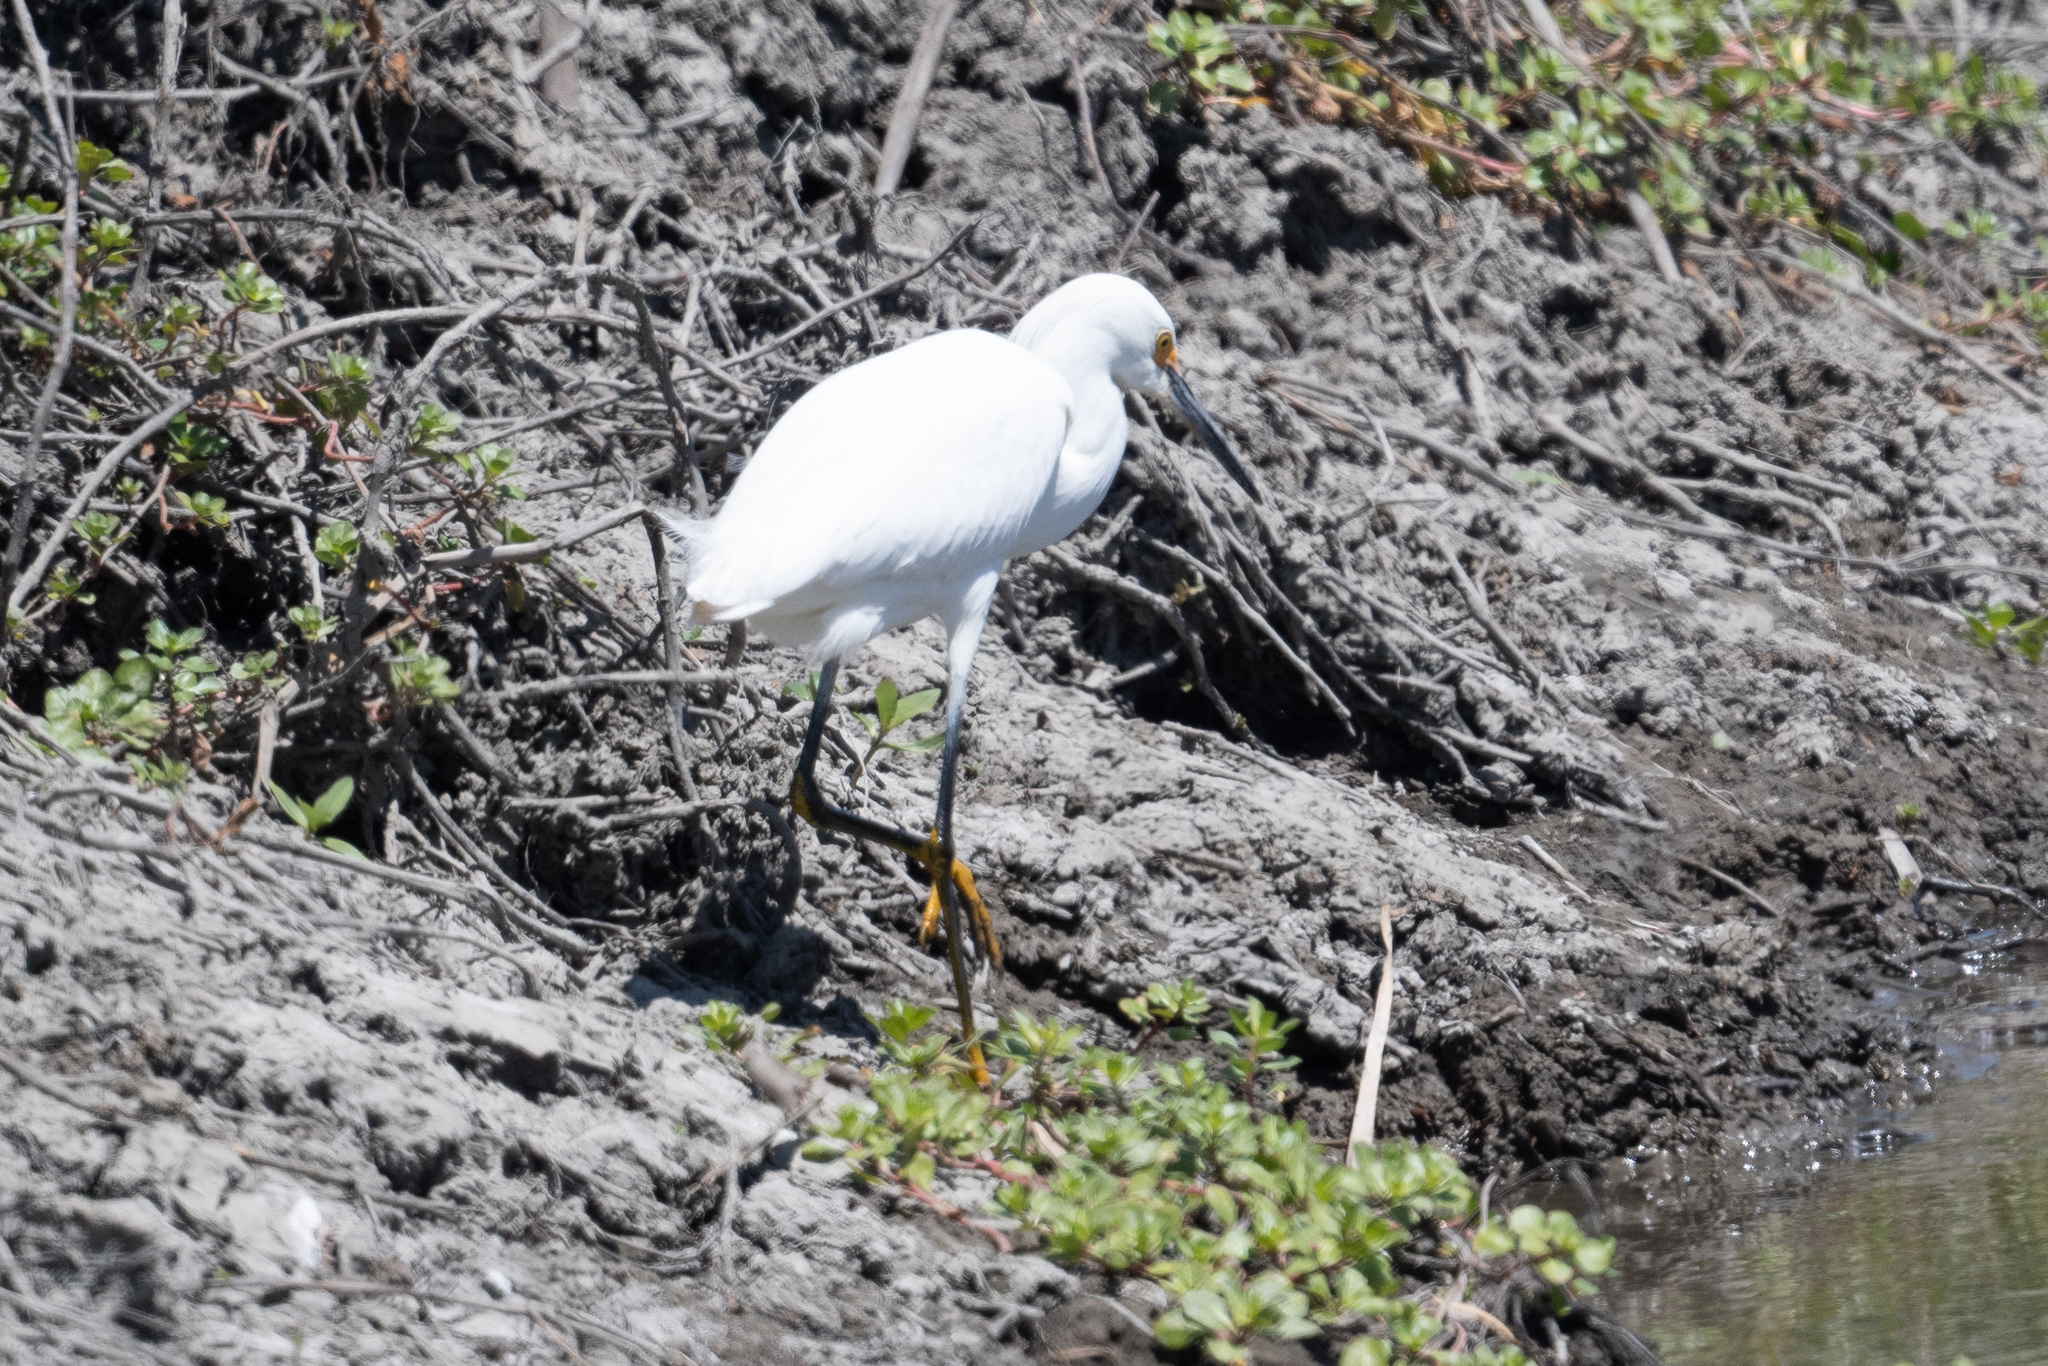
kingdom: Animalia
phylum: Chordata
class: Aves
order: Pelecaniformes
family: Ardeidae
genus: Egretta
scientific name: Egretta thula
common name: Snowy egret
